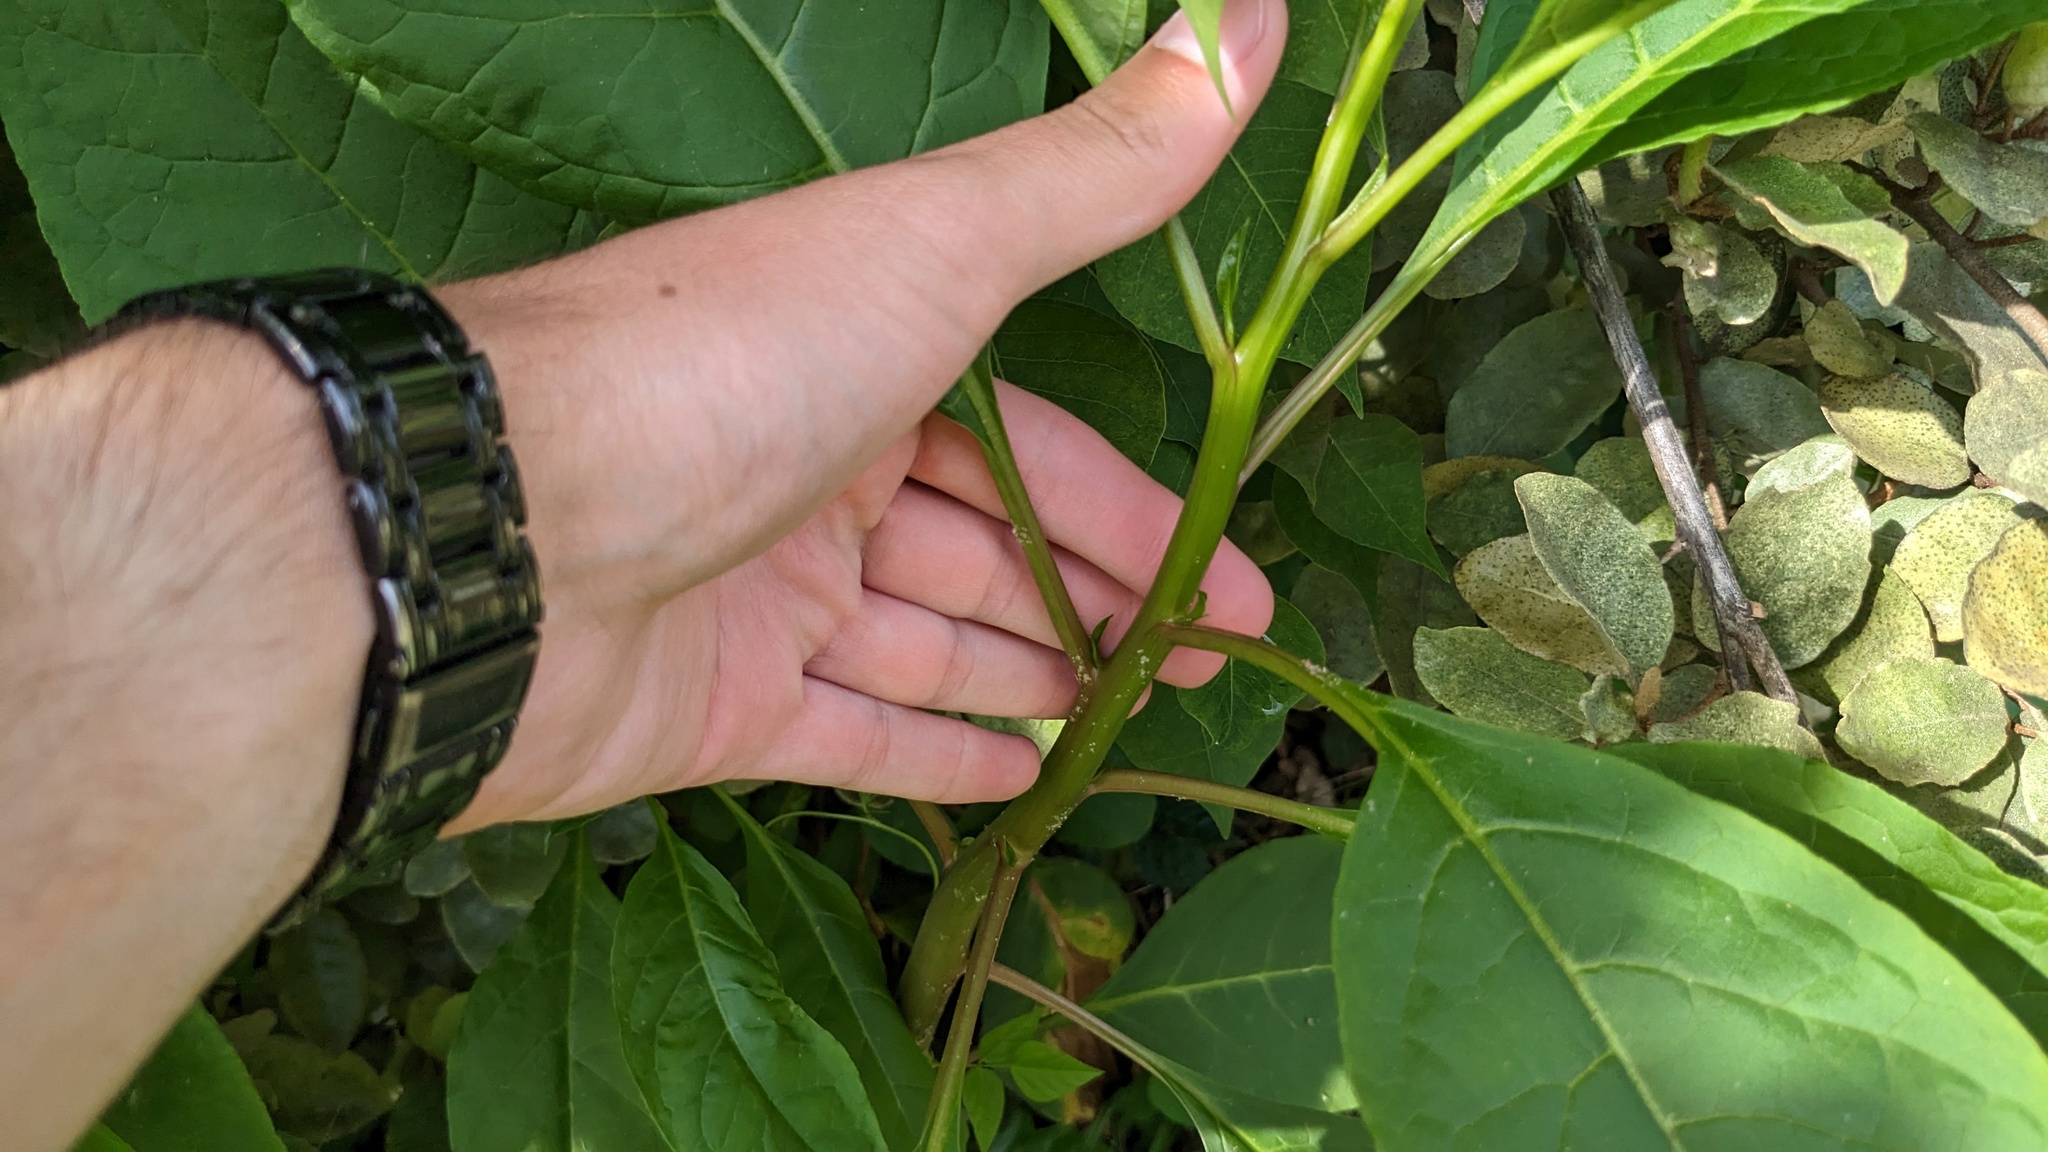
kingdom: Plantae
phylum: Tracheophyta
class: Magnoliopsida
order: Caryophyllales
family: Phytolaccaceae
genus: Phytolacca
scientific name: Phytolacca americana
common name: American pokeweed
